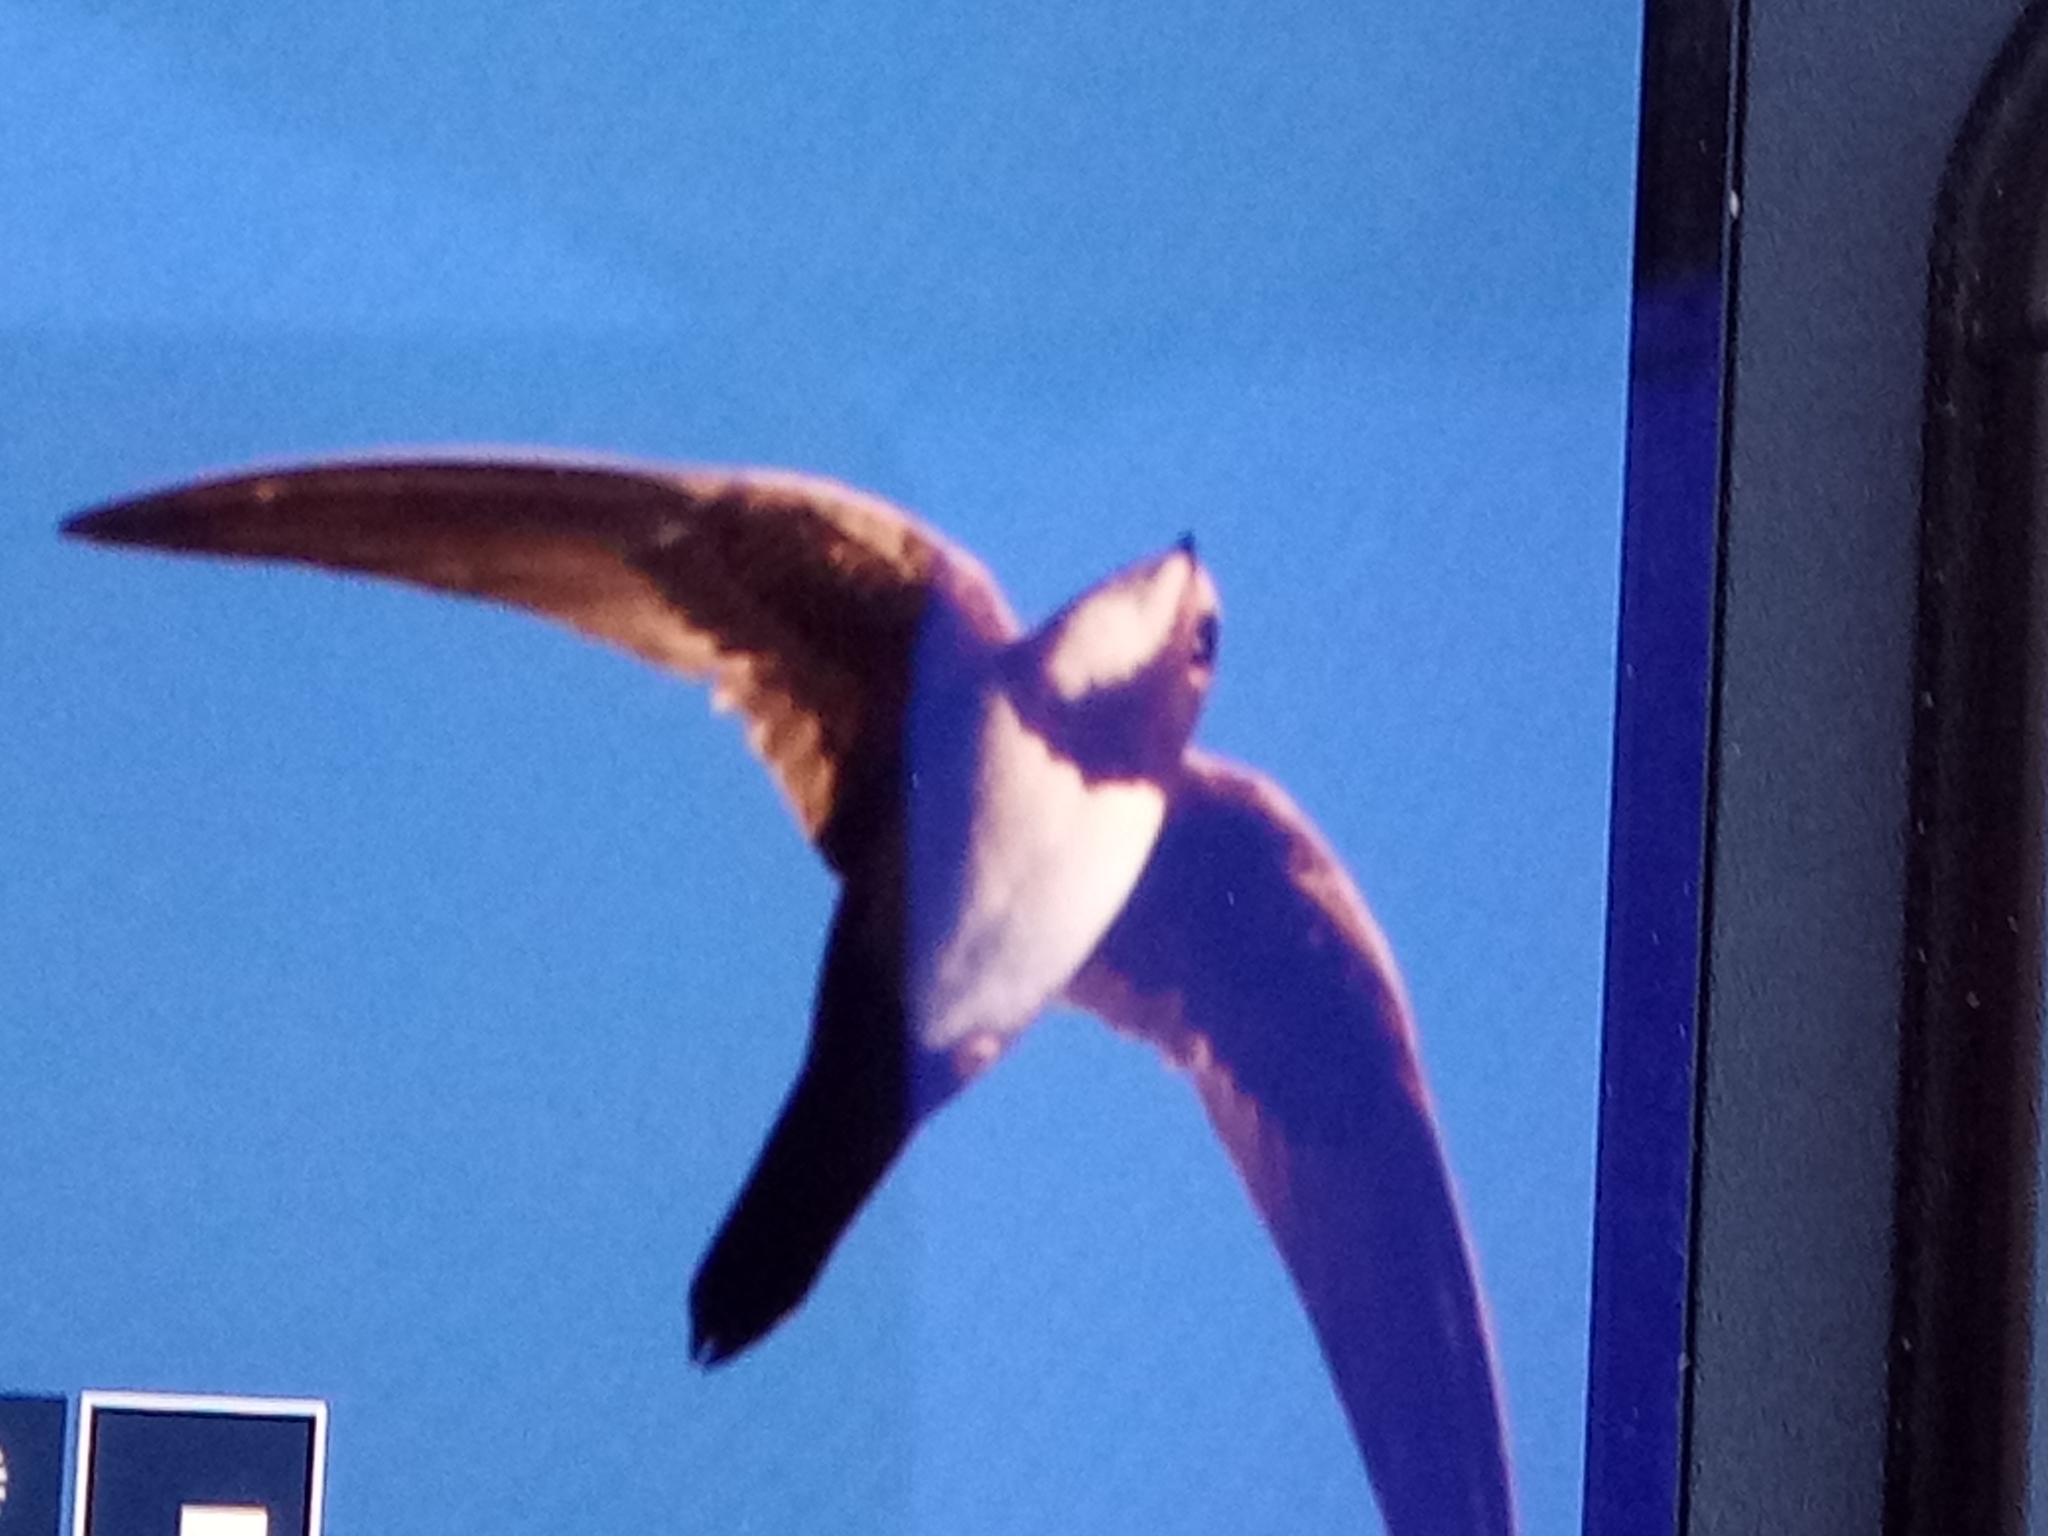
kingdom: Animalia
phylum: Chordata
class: Aves
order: Apodiformes
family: Apodidae
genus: Tachymarptis
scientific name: Tachymarptis melba
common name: Alpine swift
